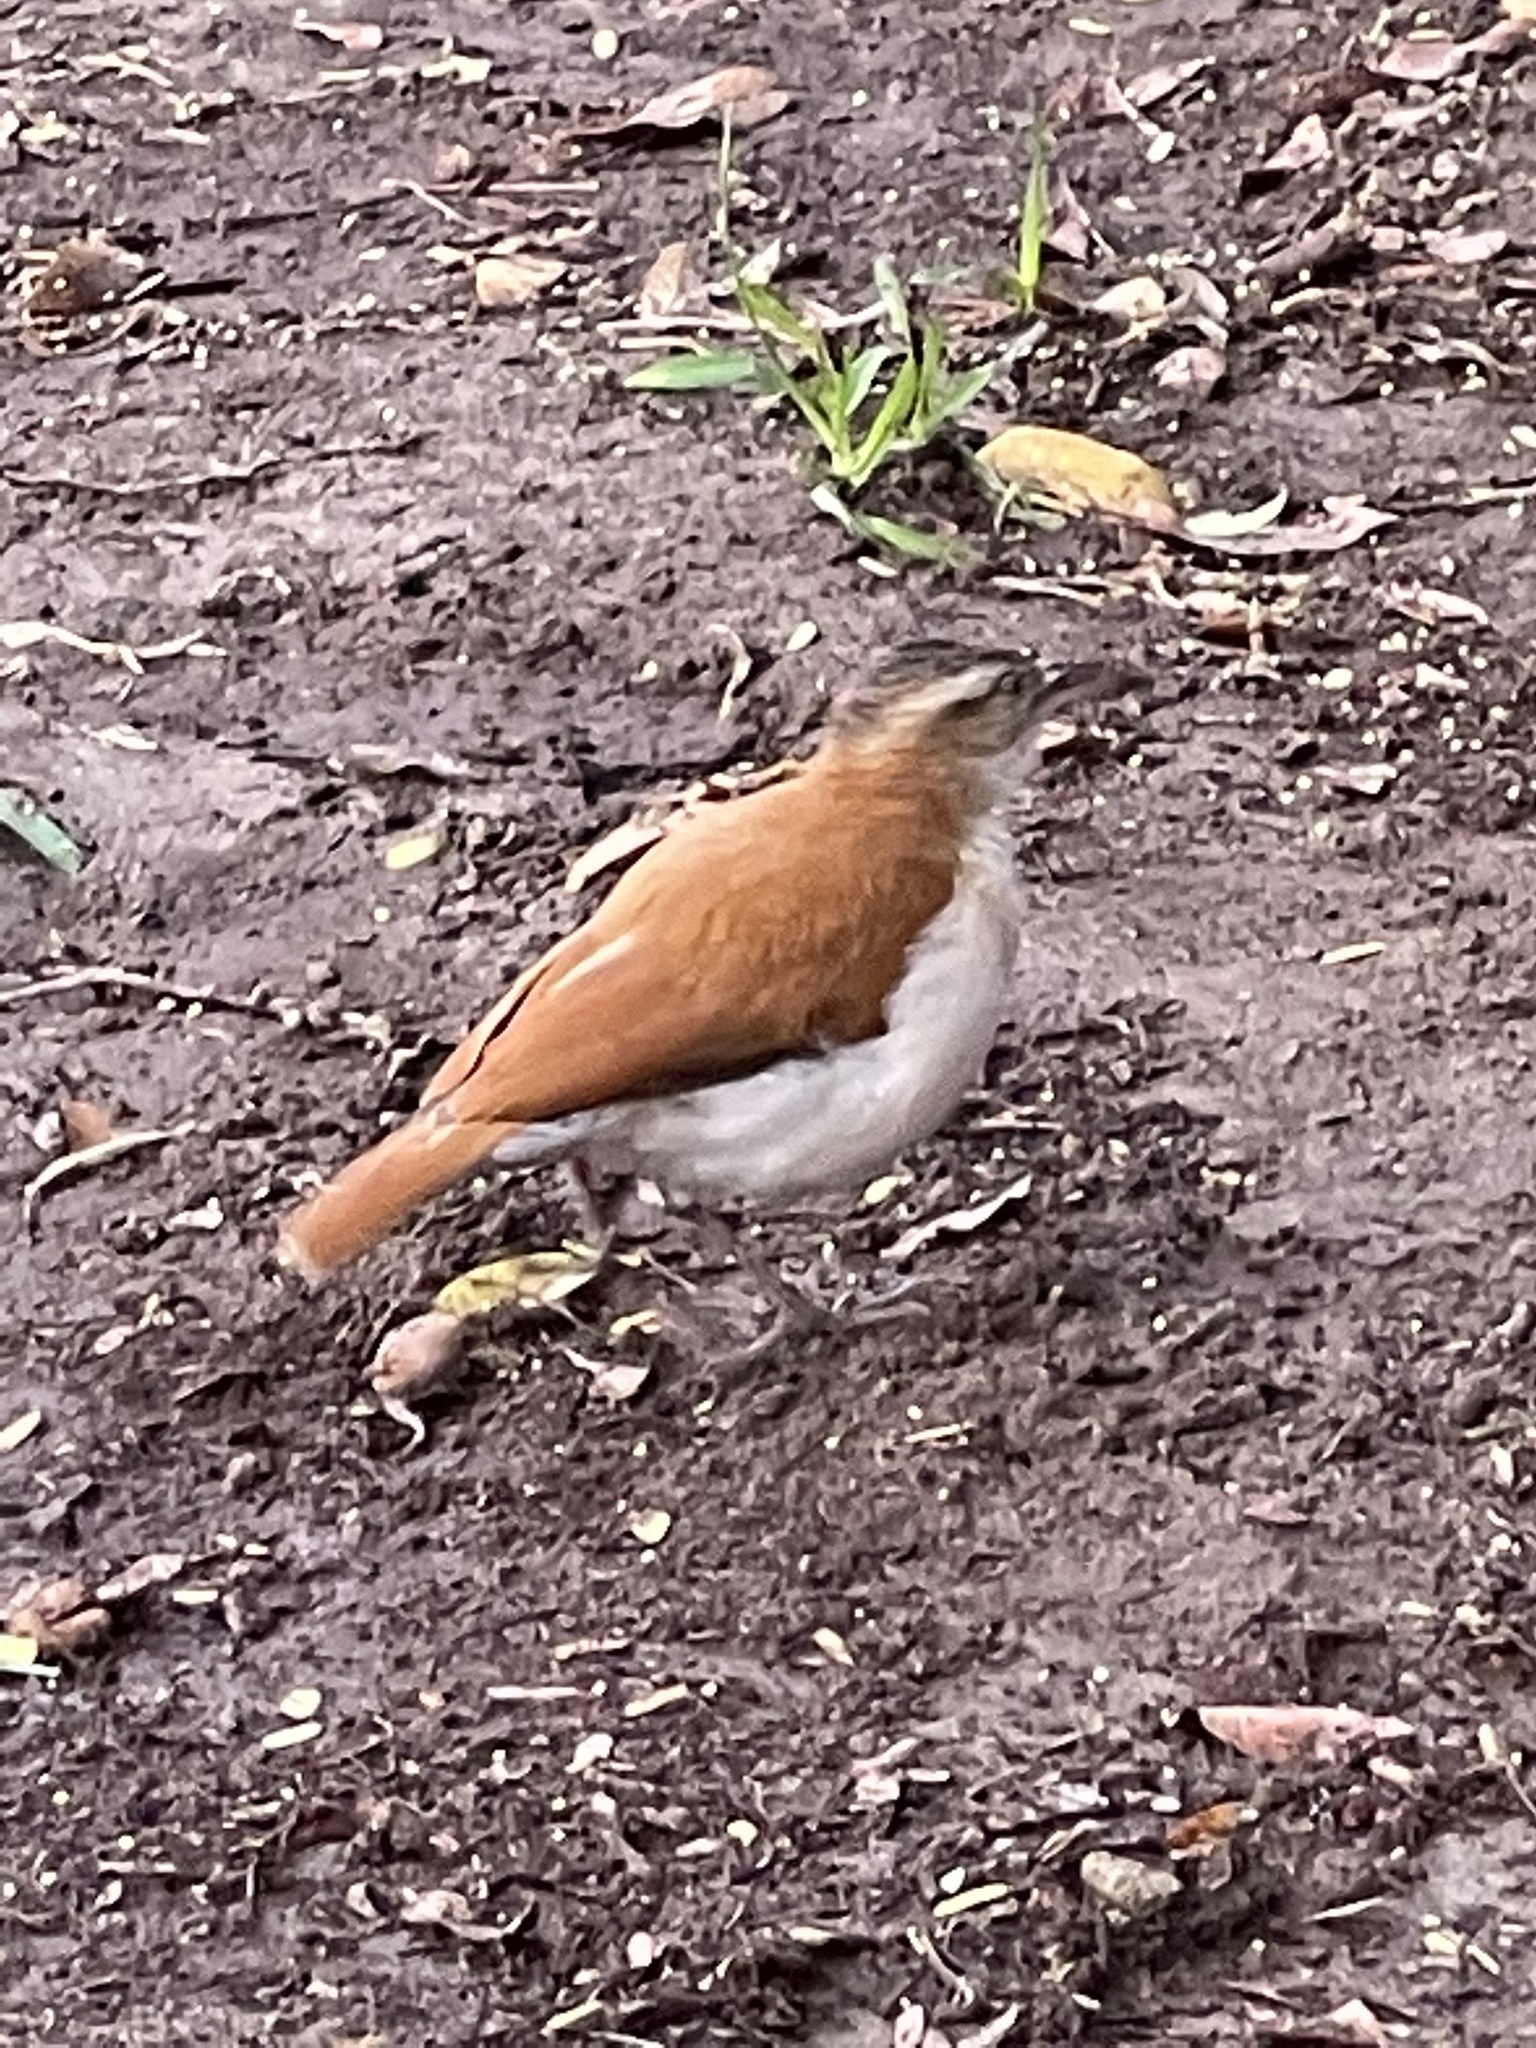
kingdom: Animalia
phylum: Chordata
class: Aves
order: Passeriformes
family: Furnariidae
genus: Furnarius
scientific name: Furnarius leucopus
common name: Pale-legged hornero
